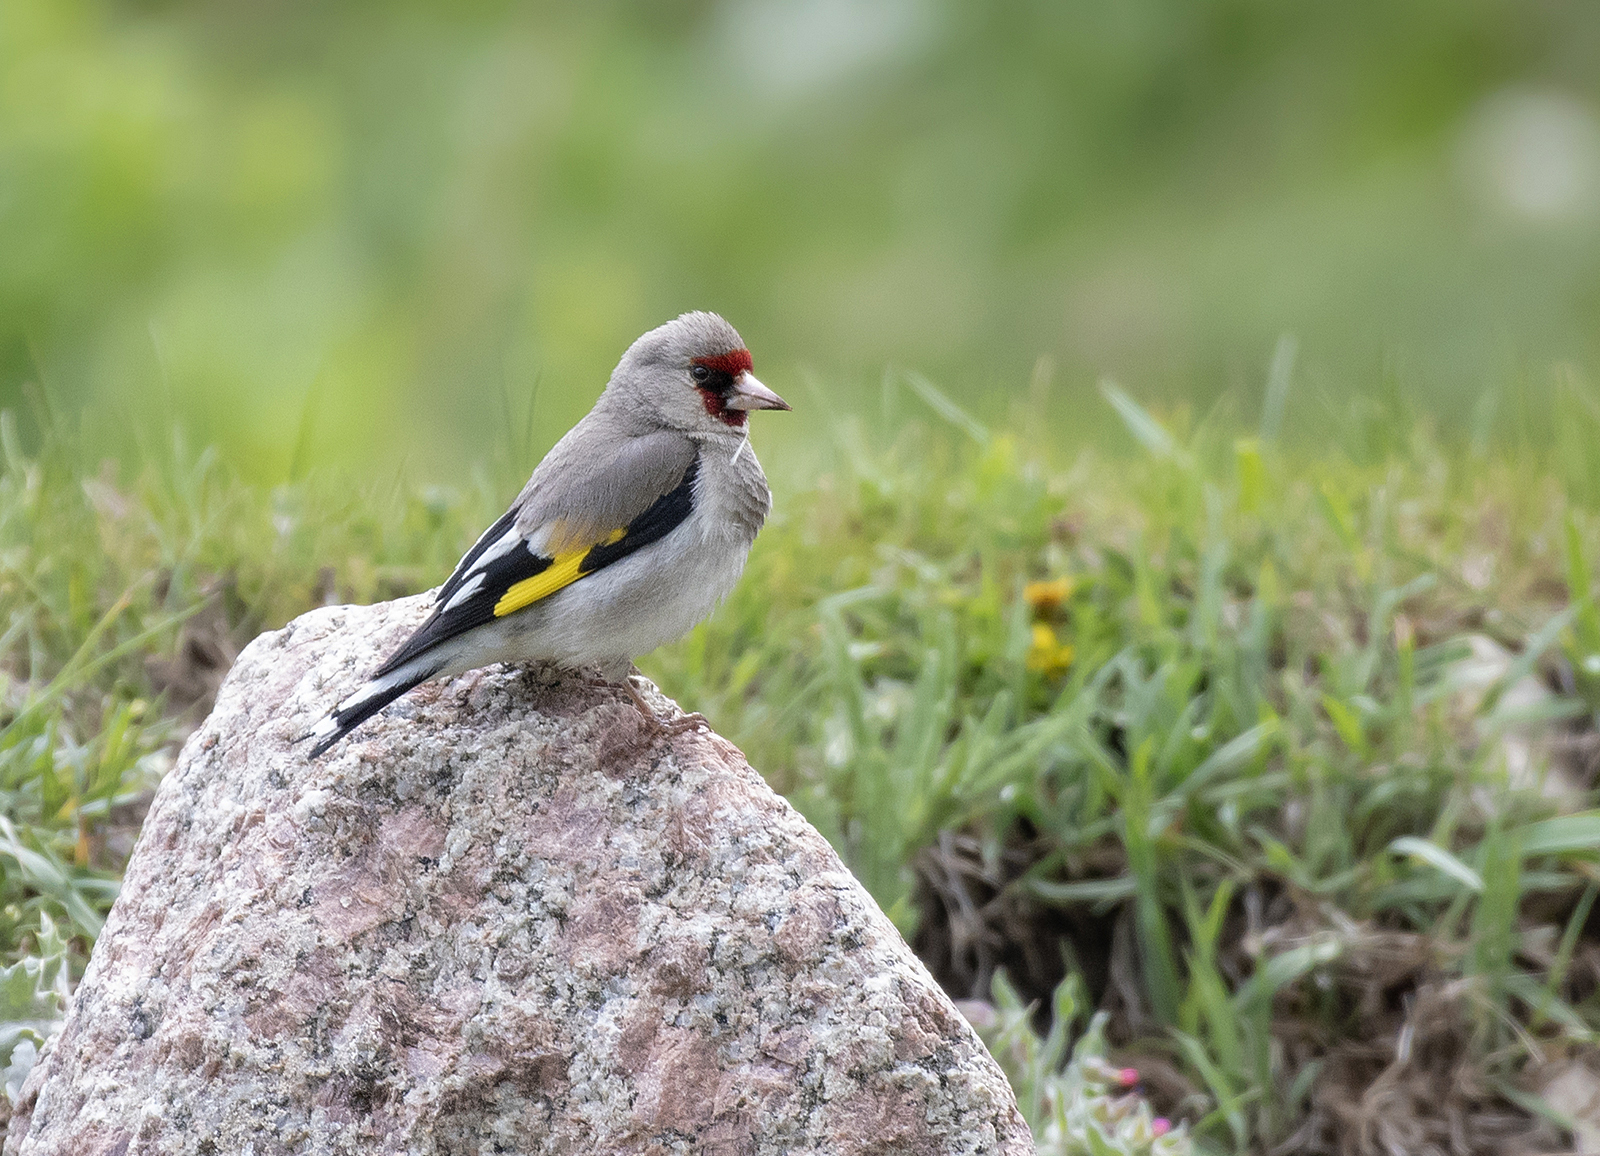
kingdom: Animalia
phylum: Chordata
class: Aves
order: Passeriformes
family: Fringillidae
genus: Carduelis
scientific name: Carduelis carduelis
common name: European goldfinch
